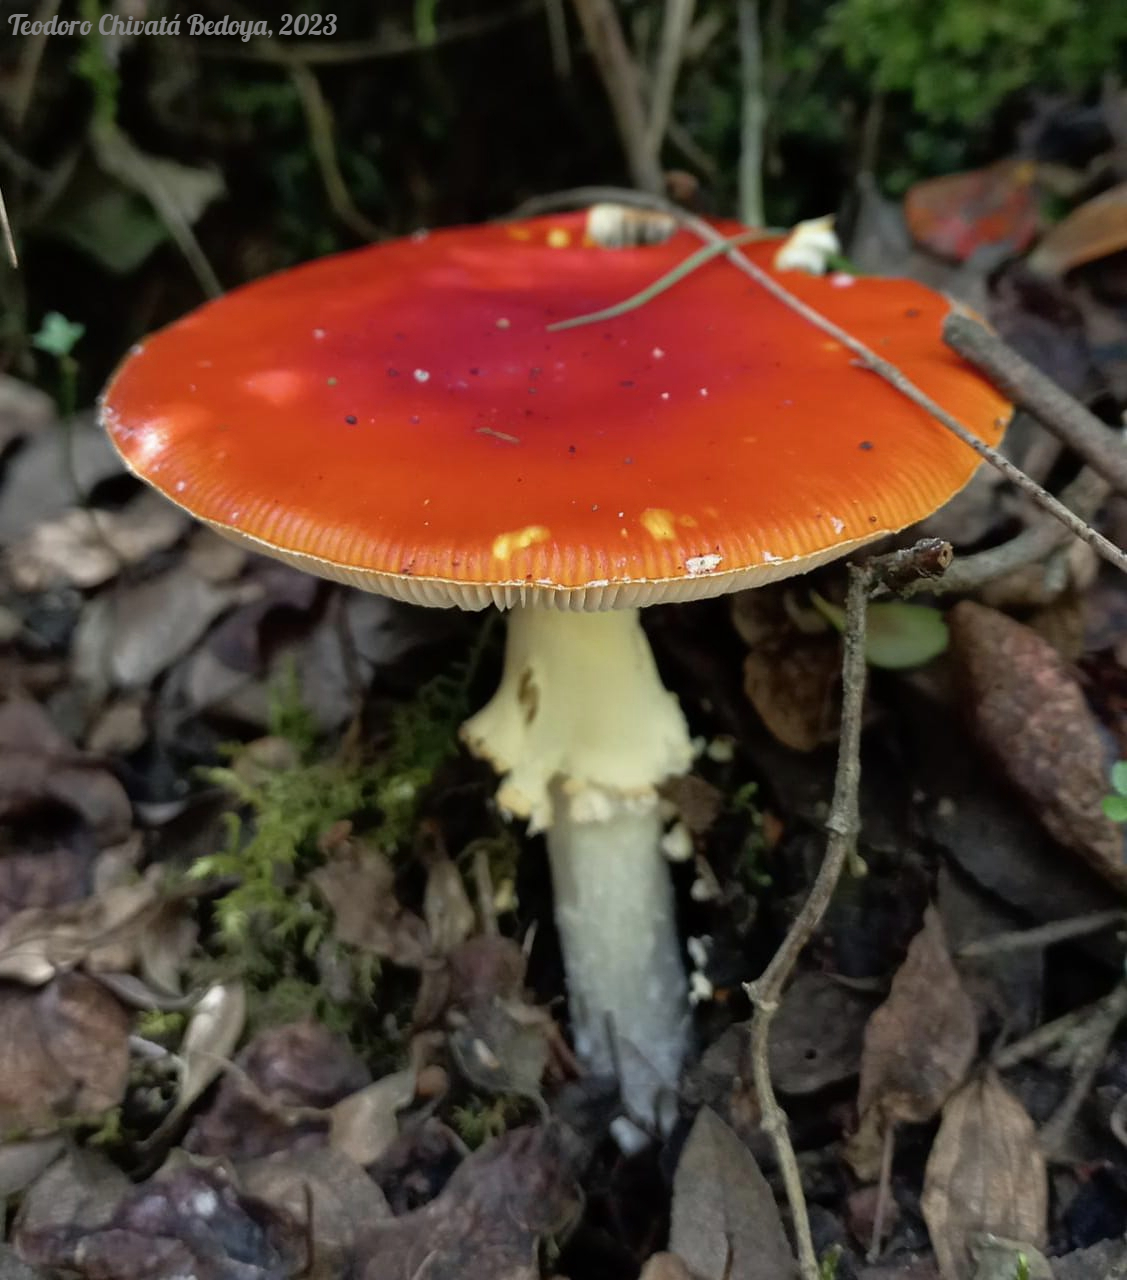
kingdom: Fungi
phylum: Basidiomycota
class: Agaricomycetes
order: Agaricales
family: Amanitaceae
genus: Amanita
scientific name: Amanita muscaria
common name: Fly agaric
